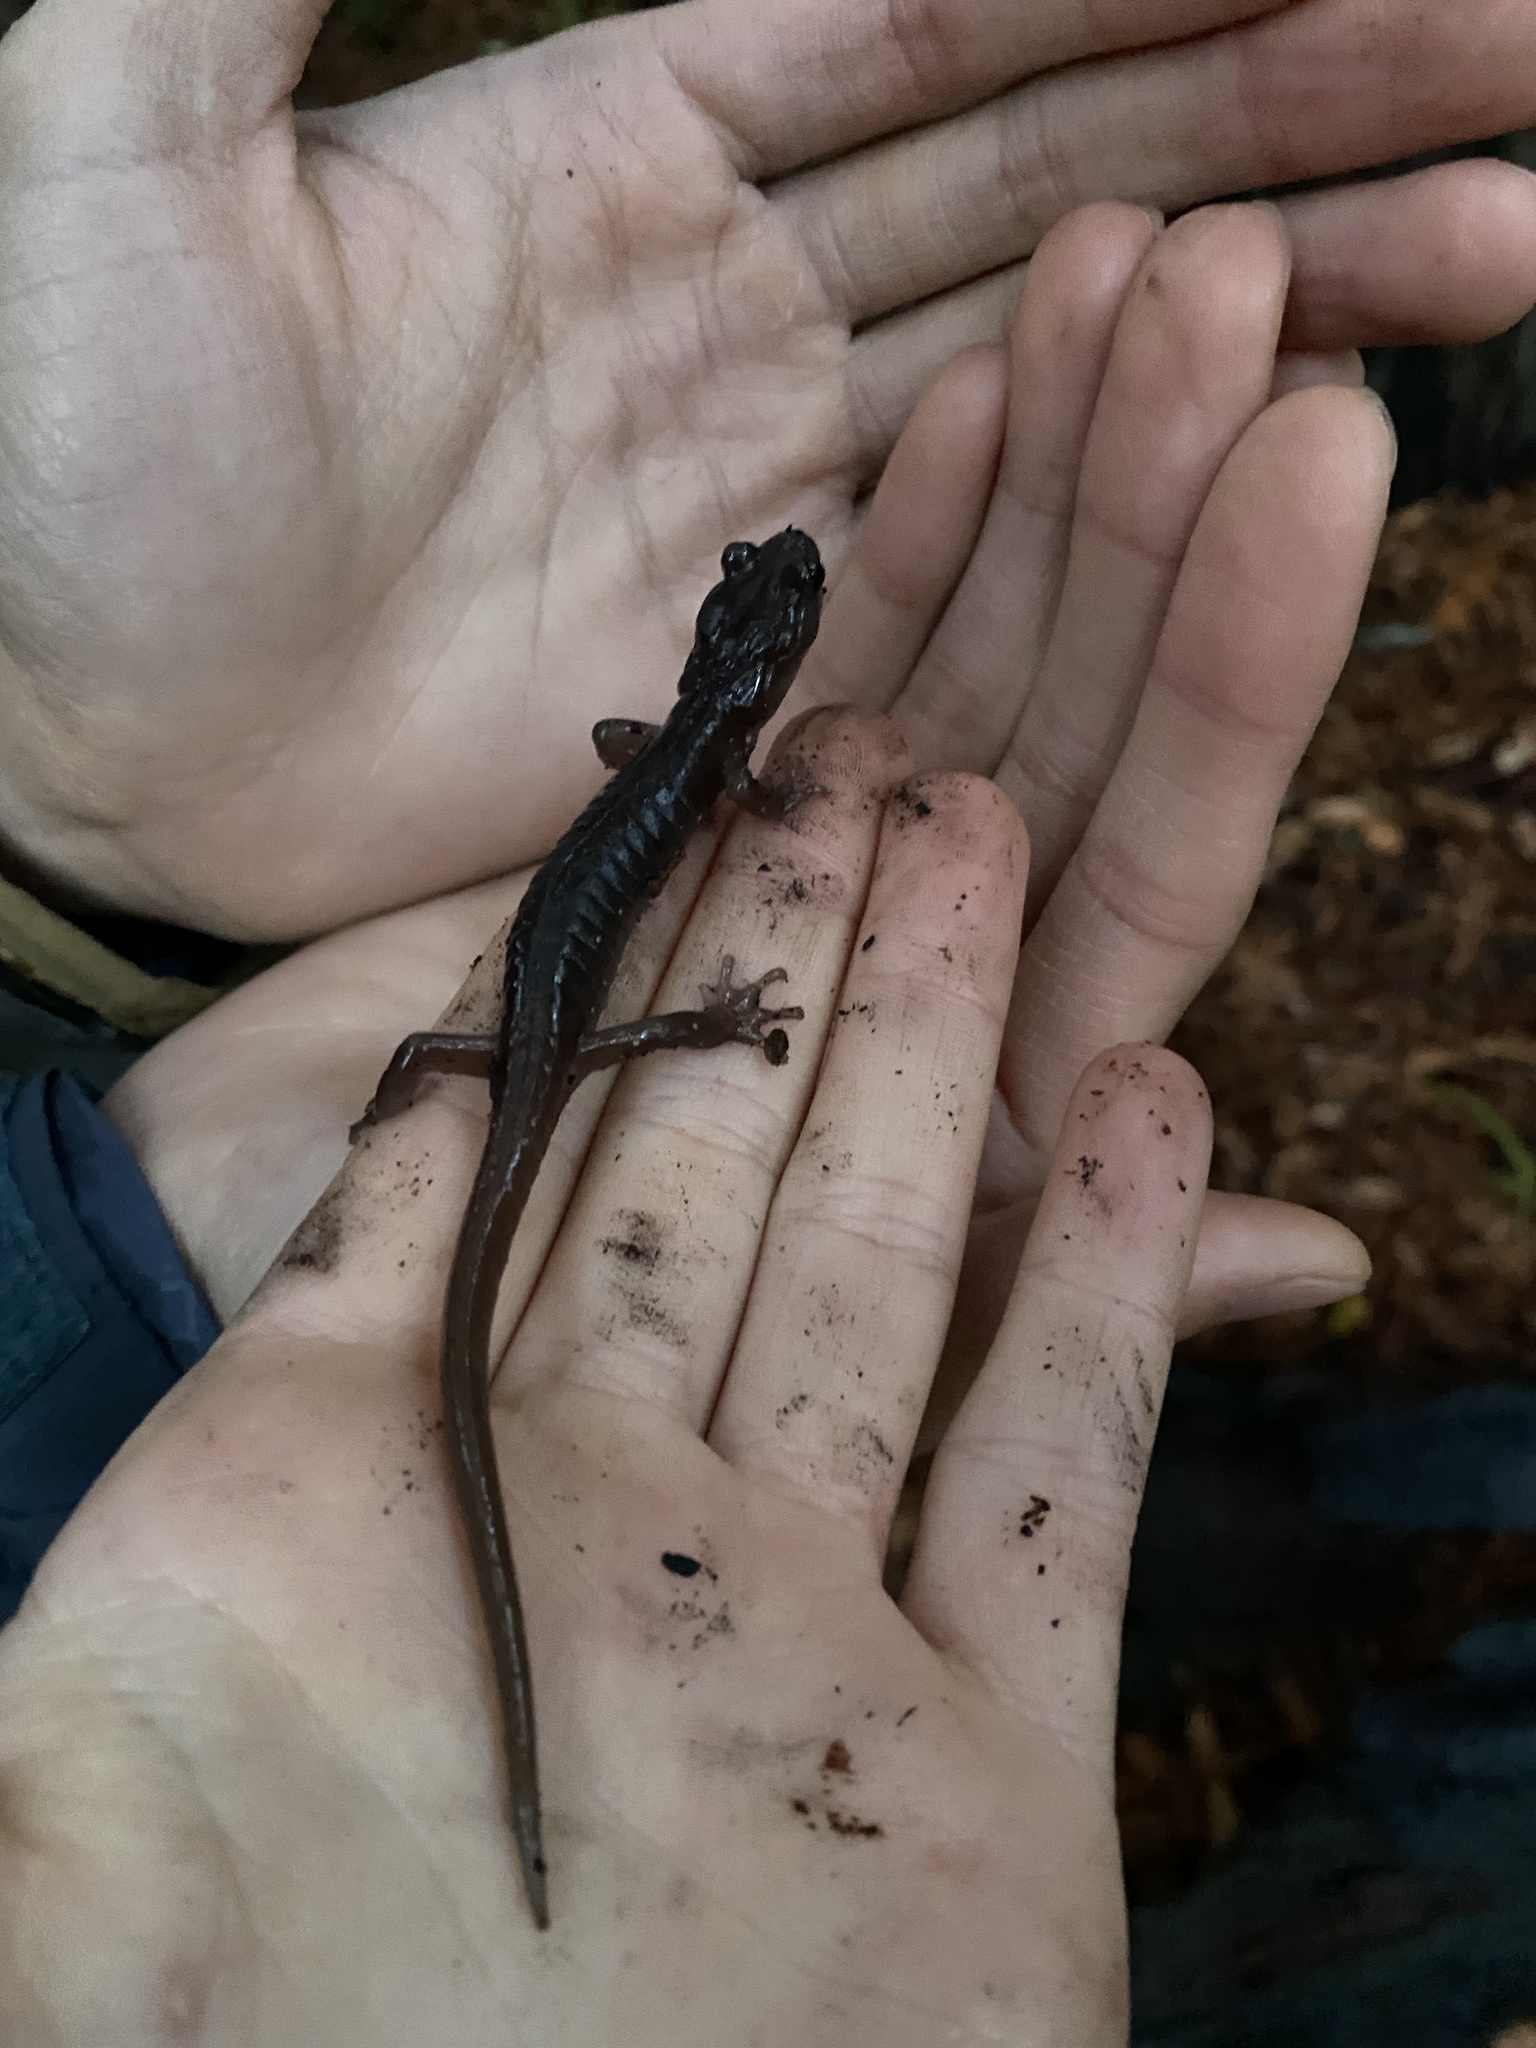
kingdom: Animalia
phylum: Chordata
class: Amphibia
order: Caudata
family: Plethodontidae
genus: Aneides
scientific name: Aneides lugubris
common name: Arboreal salamander
